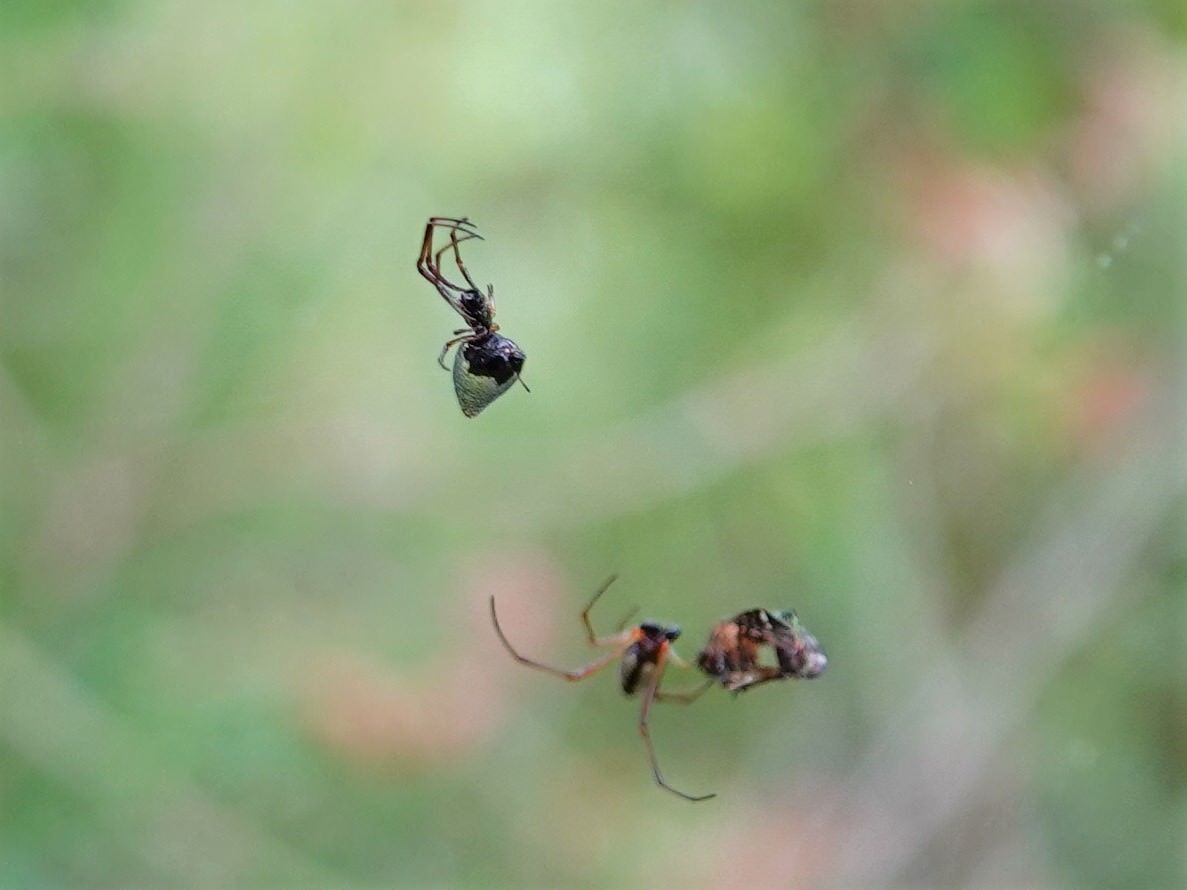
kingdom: Animalia
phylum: Arthropoda
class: Arachnida
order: Araneae
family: Theridiidae
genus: Argyrodes
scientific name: Argyrodes antipodianus
